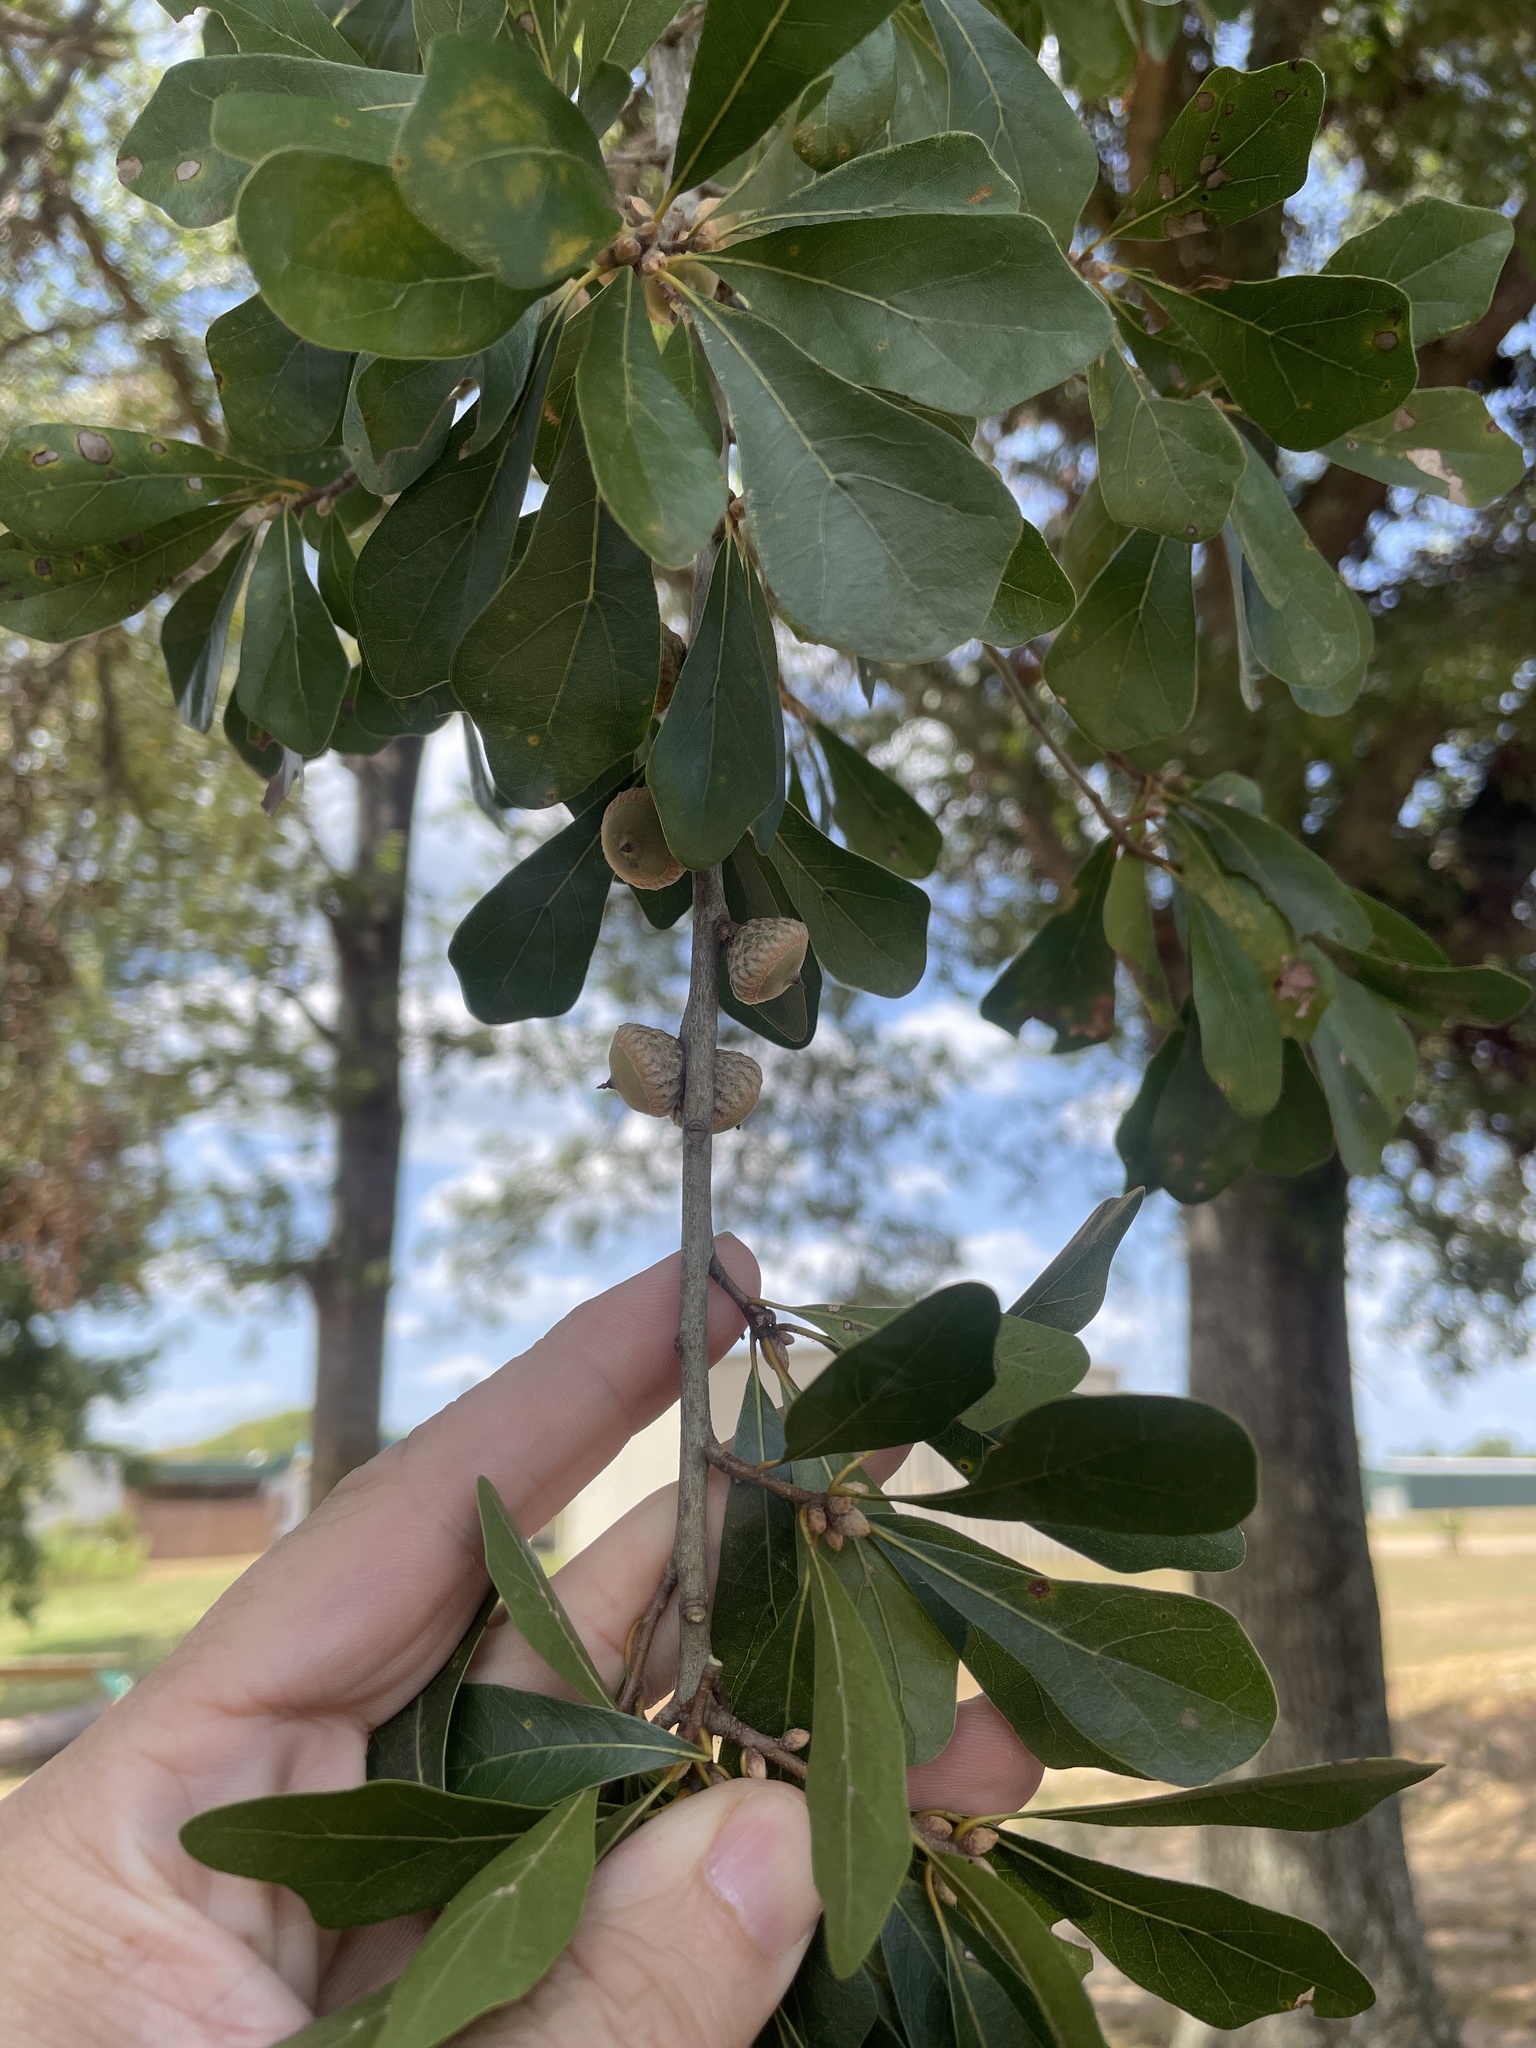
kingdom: Plantae
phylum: Tracheophyta
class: Magnoliopsida
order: Fagales
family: Fagaceae
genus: Quercus
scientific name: Quercus nigra
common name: Water oak
